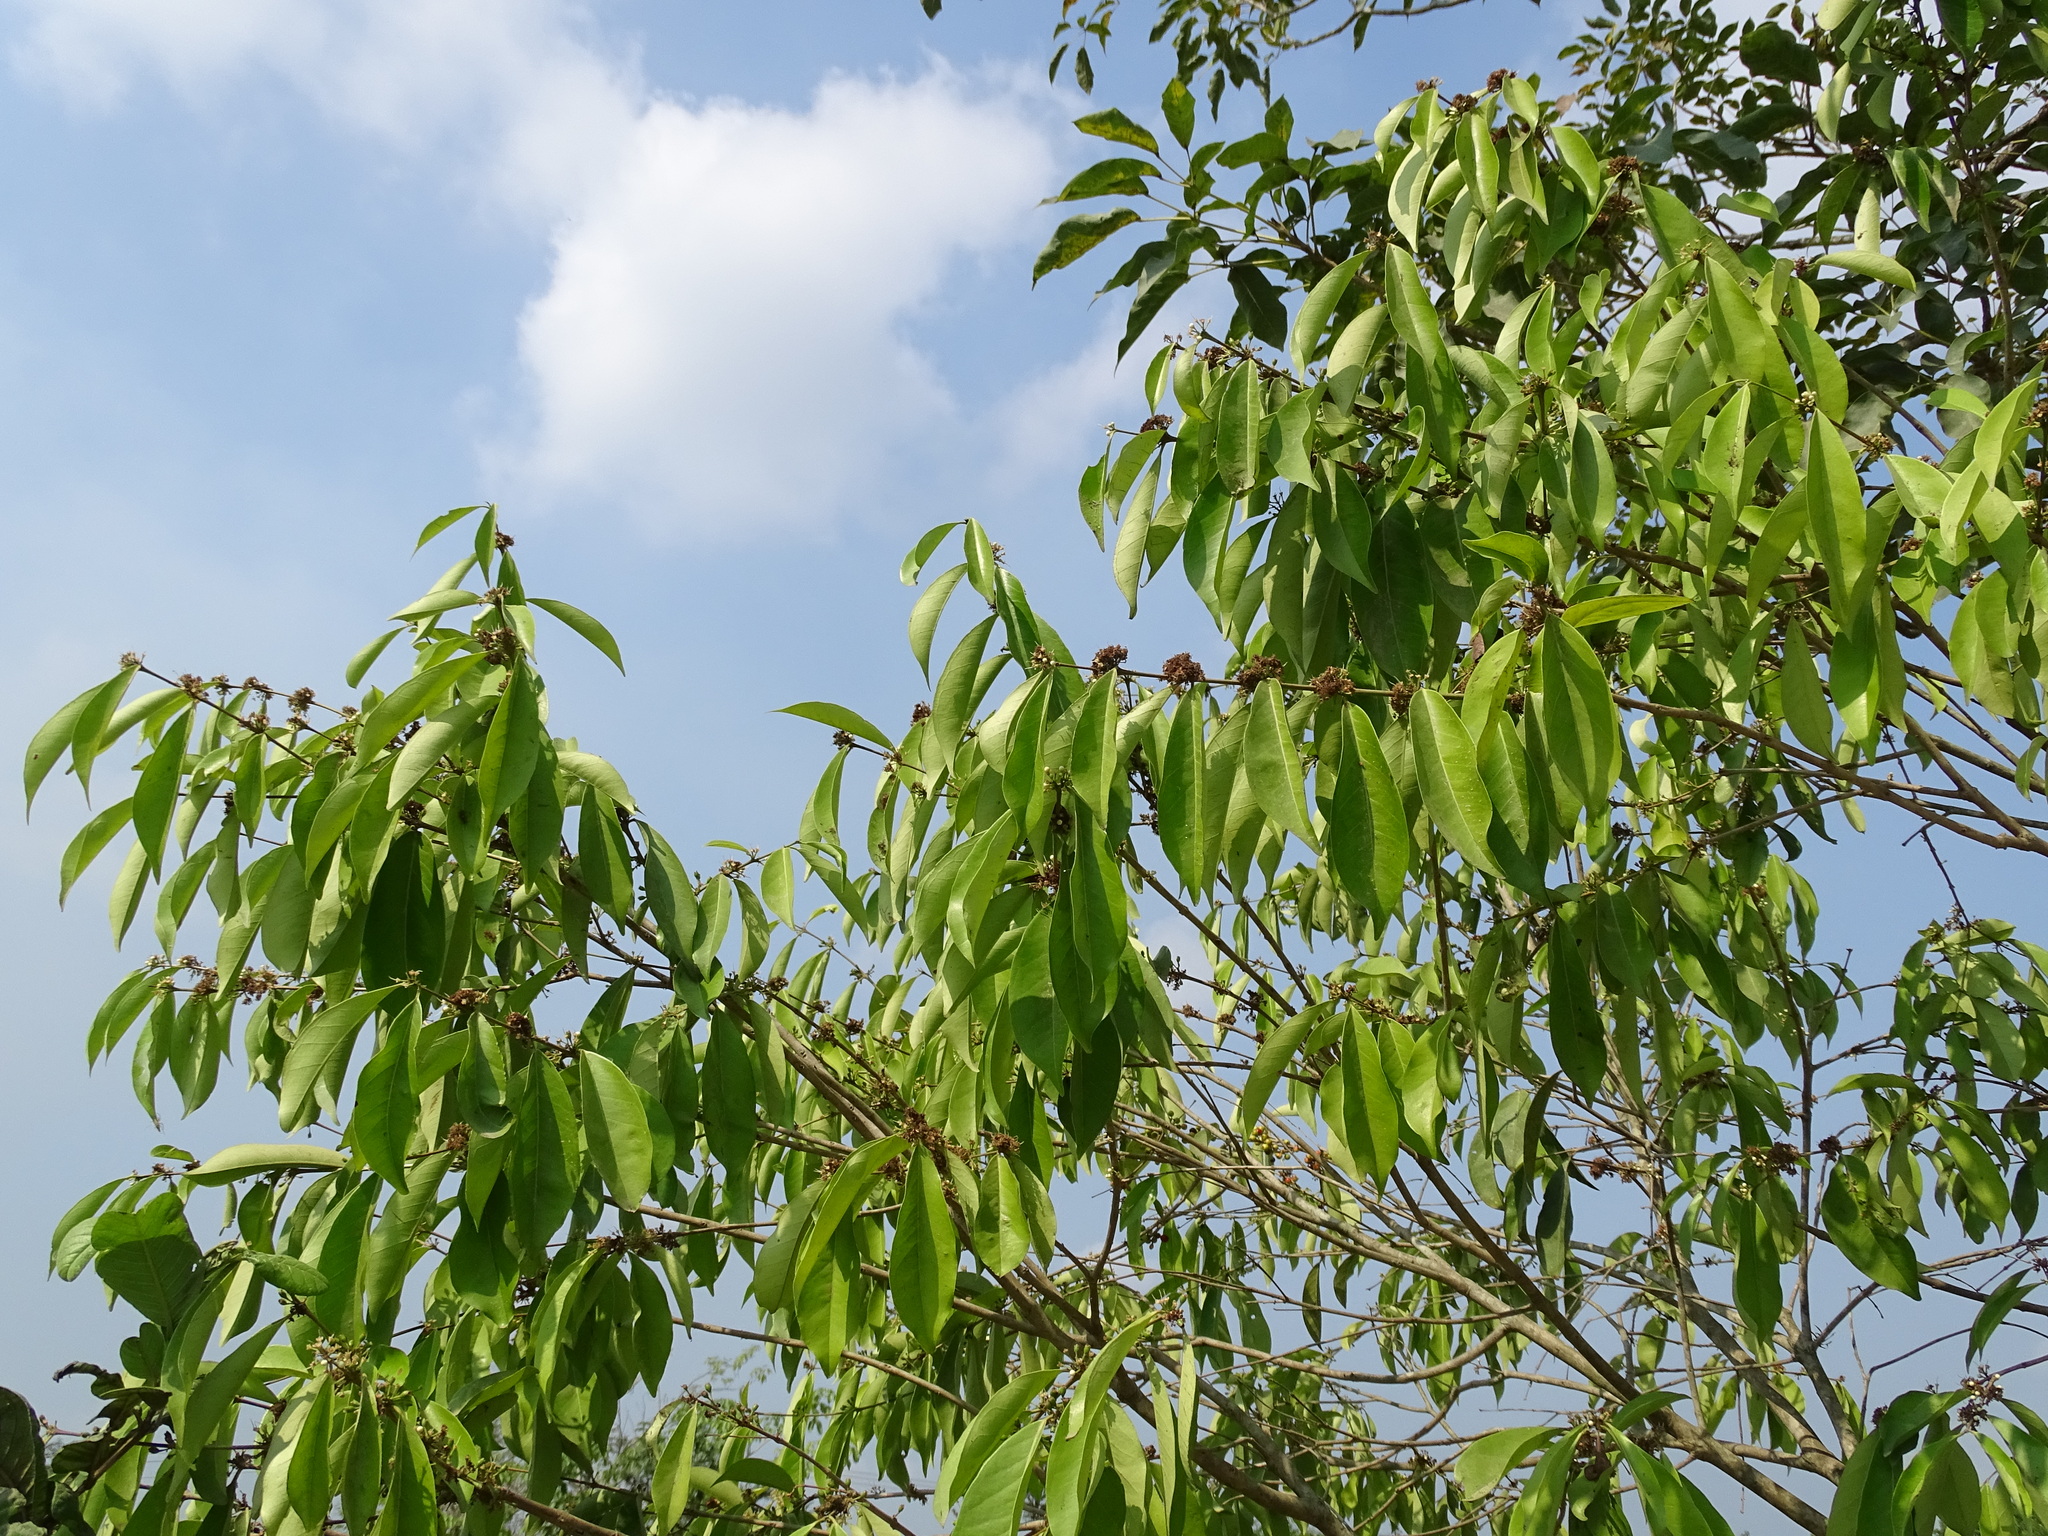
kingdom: Plantae
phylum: Tracheophyta
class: Magnoliopsida
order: Myrtales
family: Myrtaceae
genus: Eugenia
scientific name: Eugenia choapamensis
